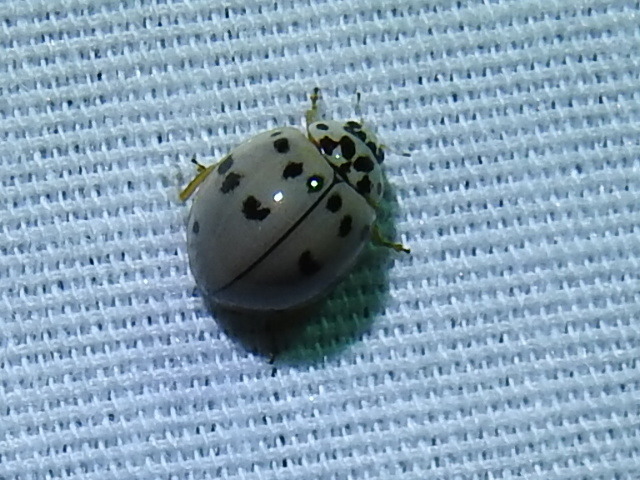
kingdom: Animalia
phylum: Arthropoda
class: Insecta
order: Coleoptera
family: Coccinellidae
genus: Olla
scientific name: Olla v-nigrum
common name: Ashy gray lady beetle
